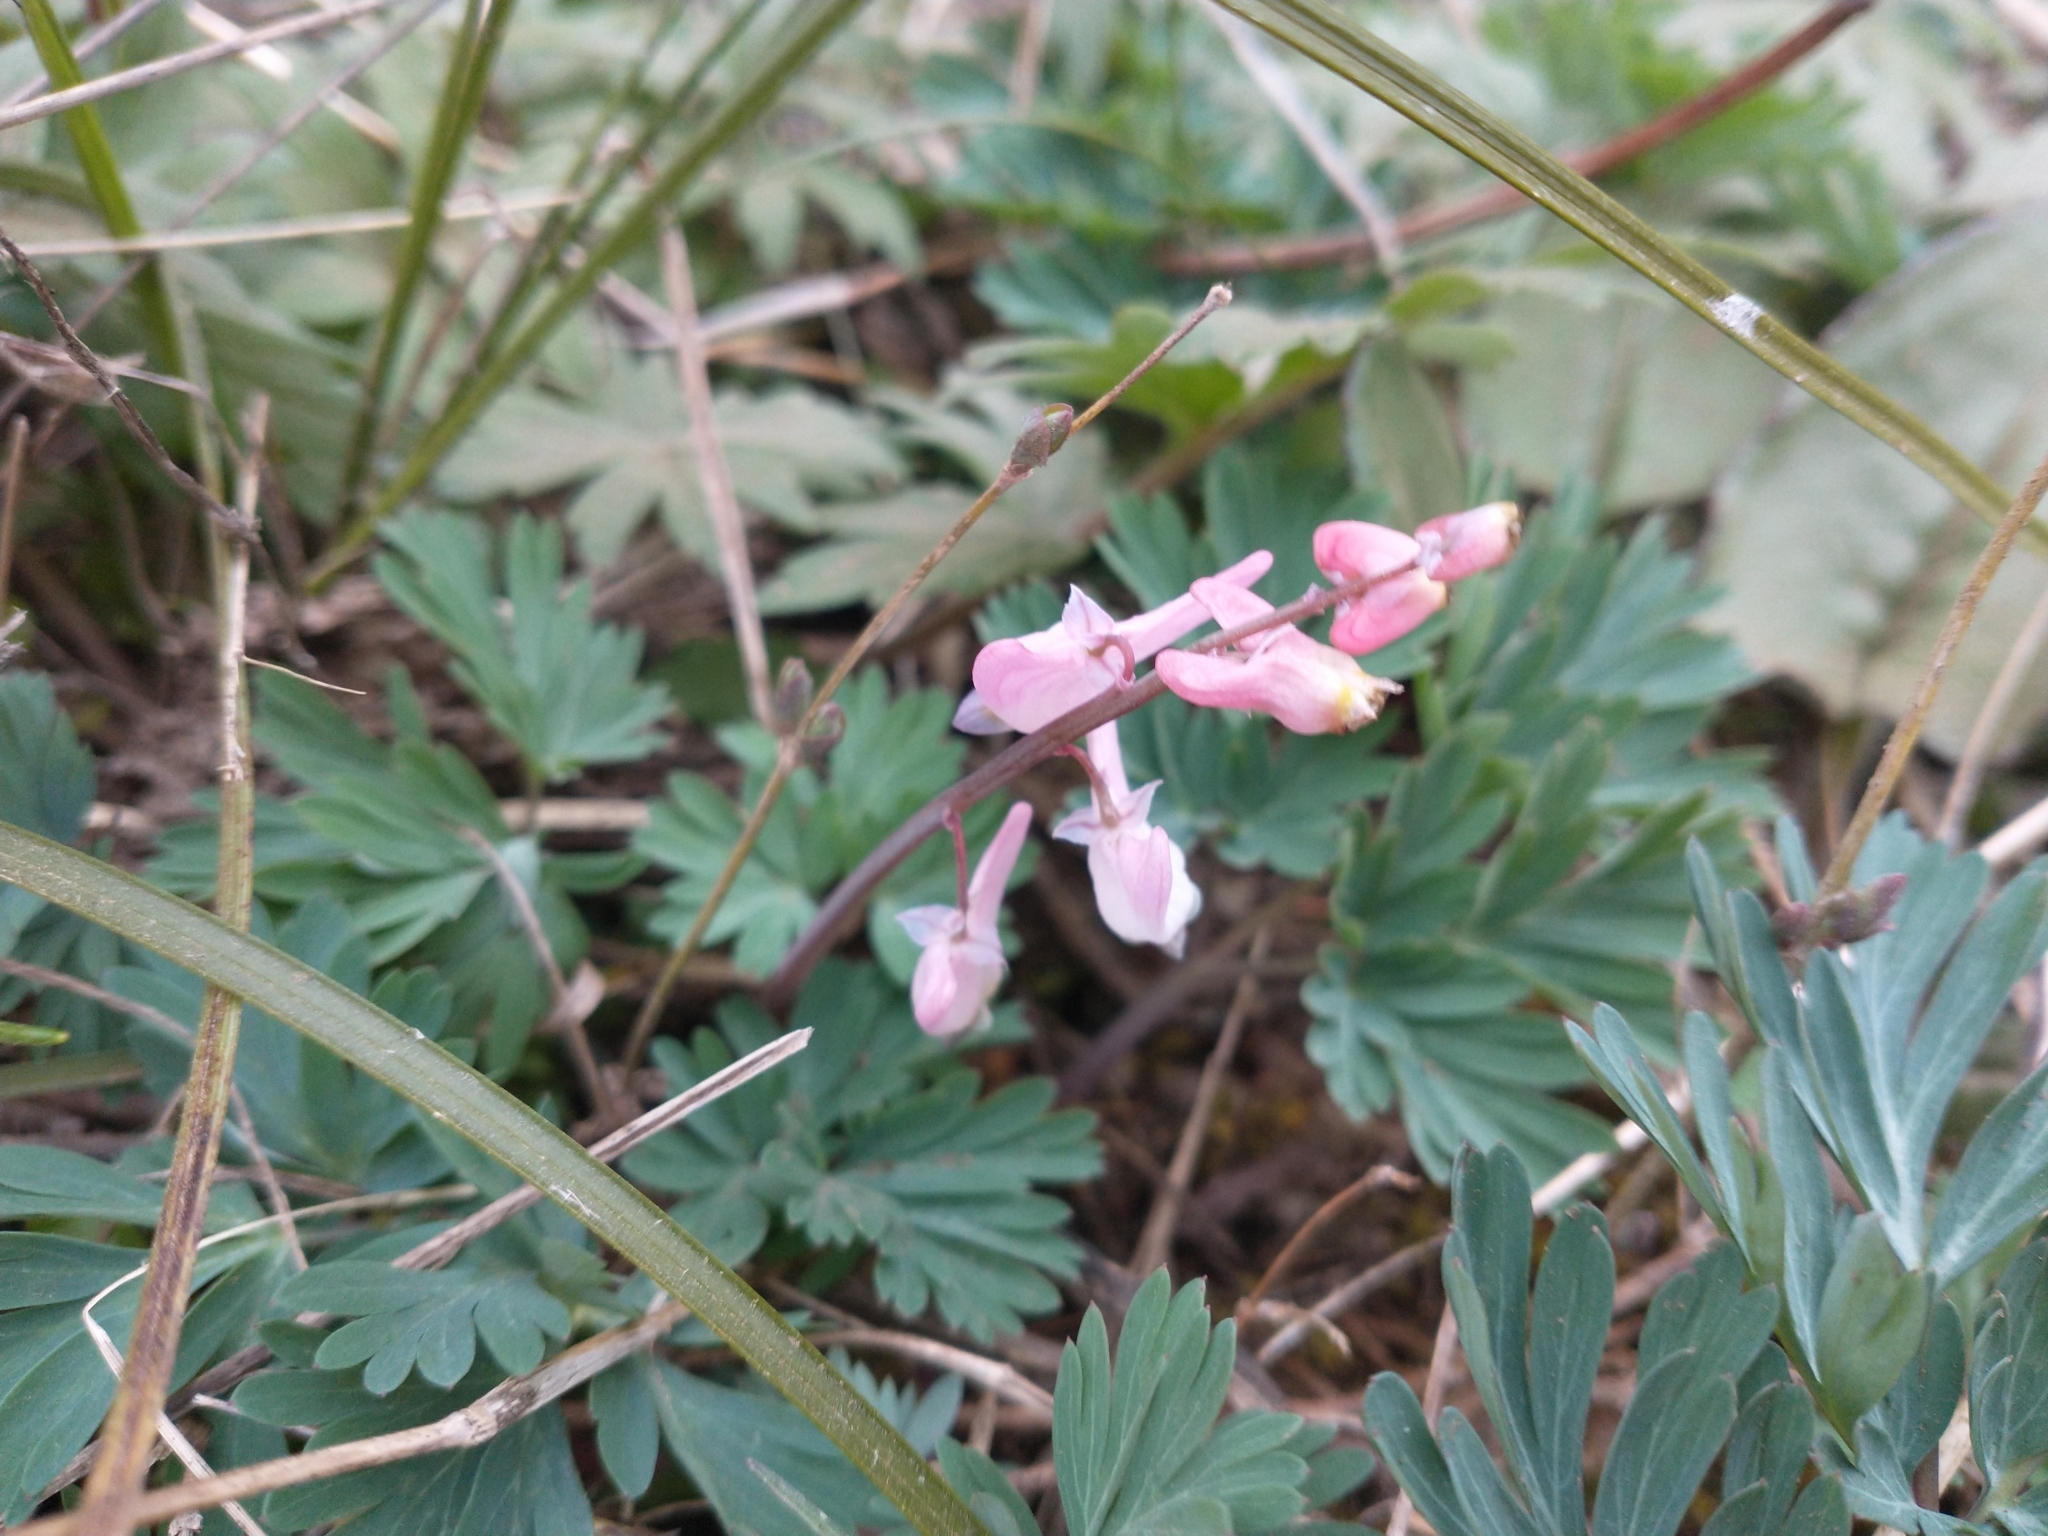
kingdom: Plantae
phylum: Tracheophyta
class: Magnoliopsida
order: Ranunculales
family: Papaveraceae
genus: Dicentra
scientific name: Dicentra cucullaria
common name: Dutchman's breeches
